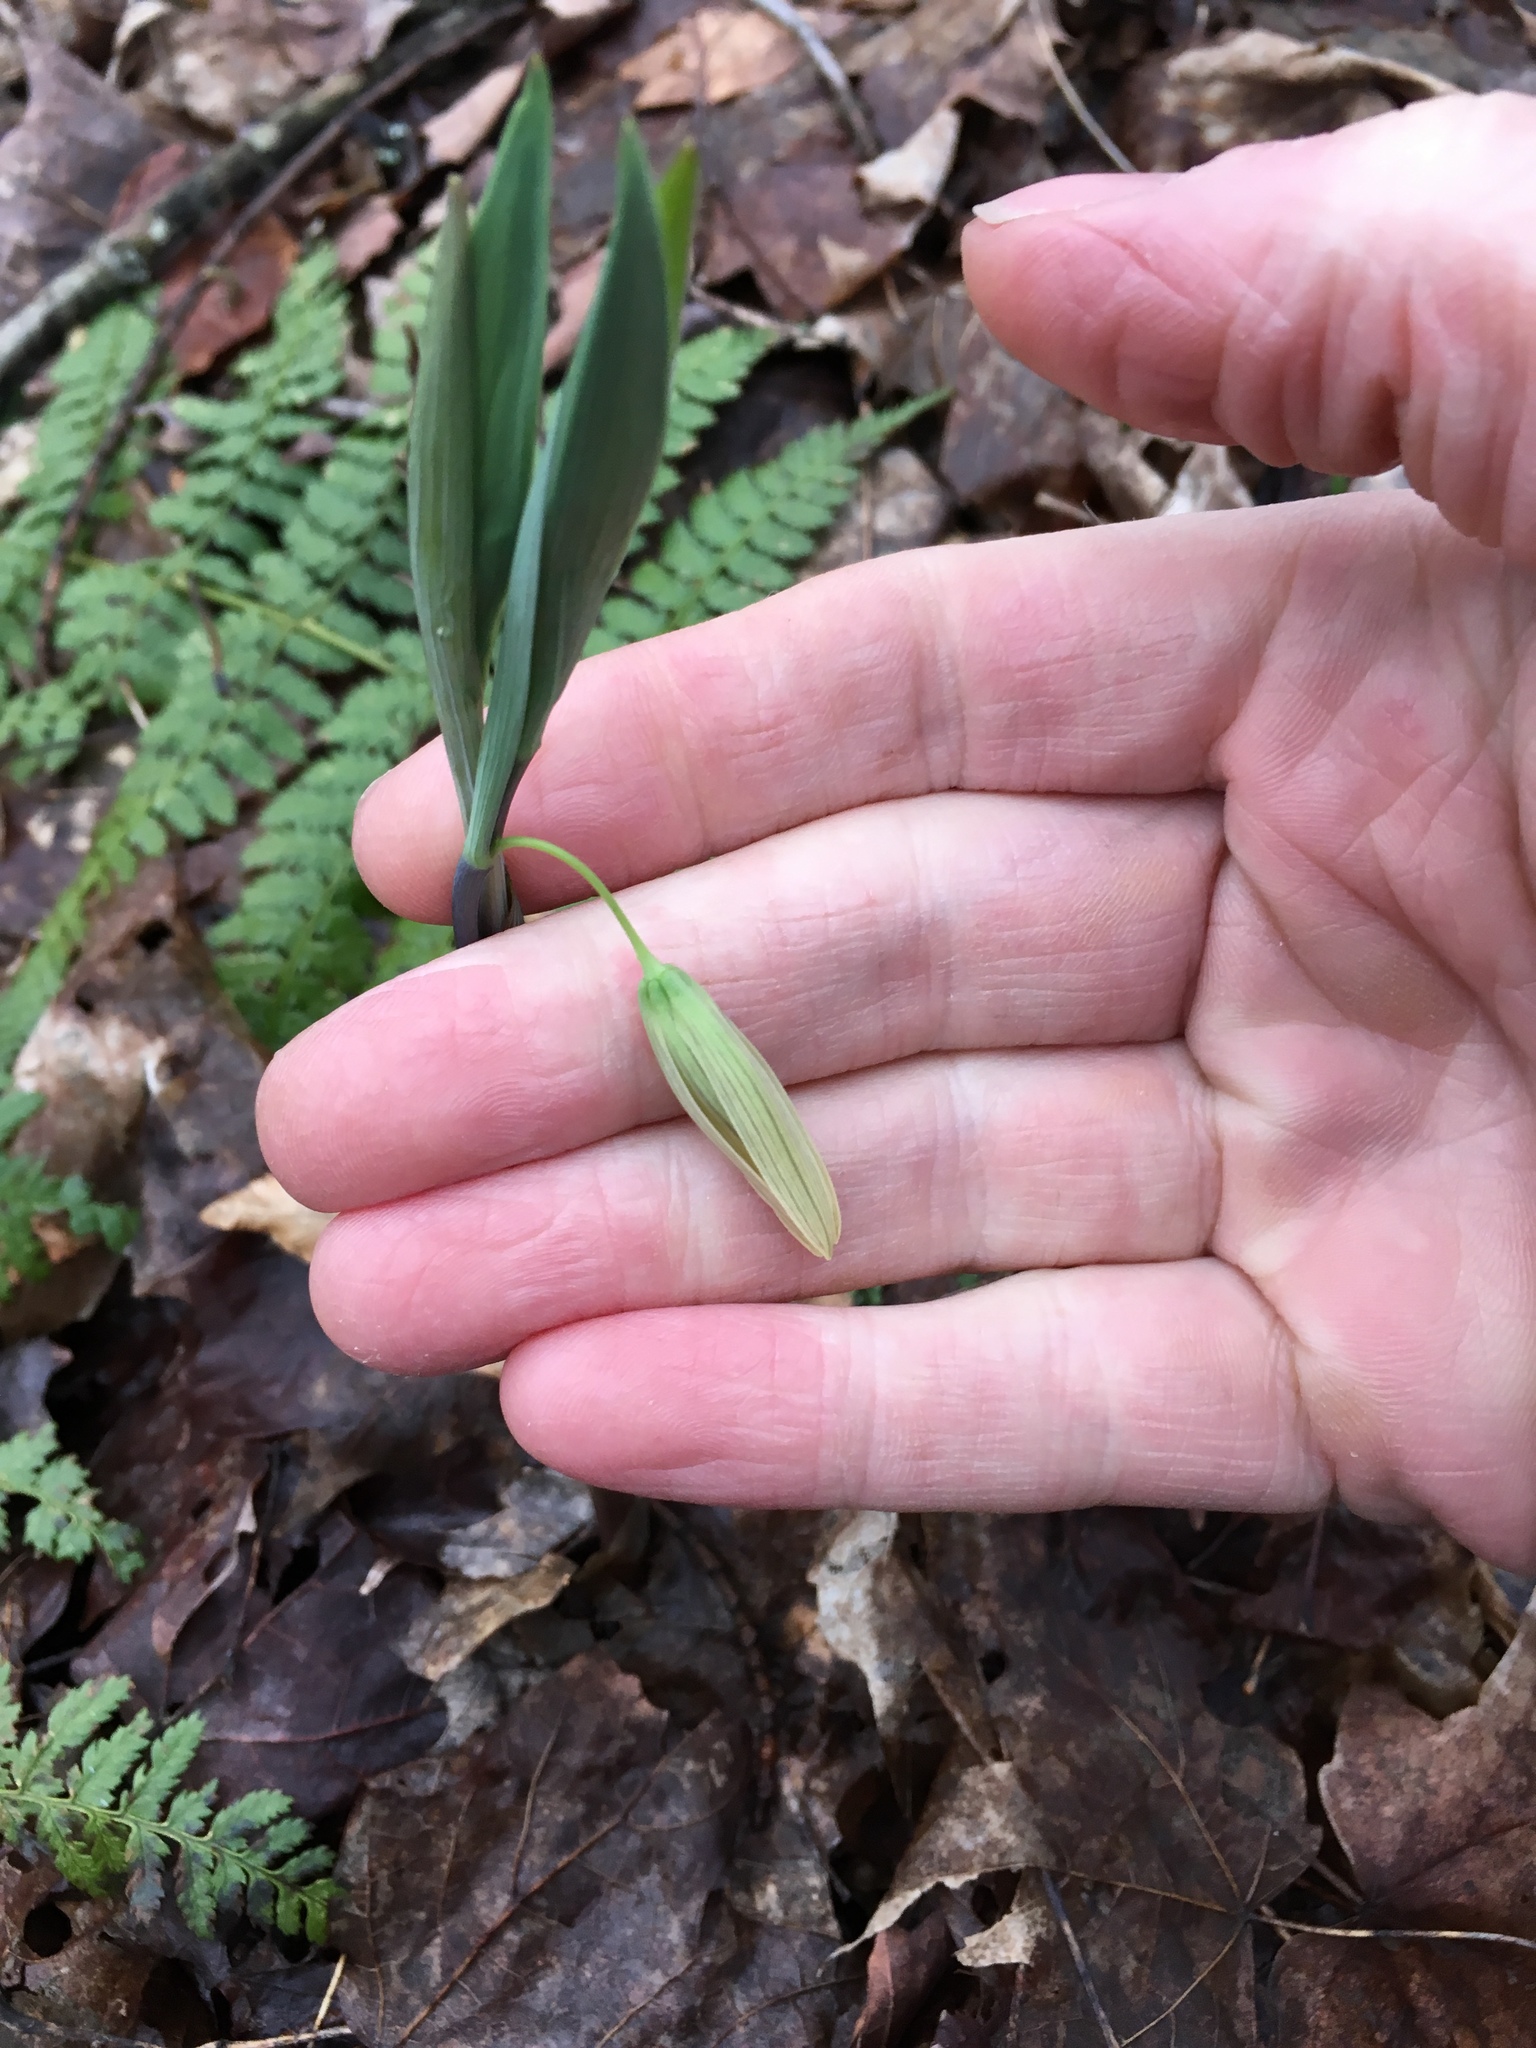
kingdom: Plantae
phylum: Tracheophyta
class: Liliopsida
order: Liliales
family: Colchicaceae
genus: Uvularia
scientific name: Uvularia sessilifolia
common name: Straw-lily
